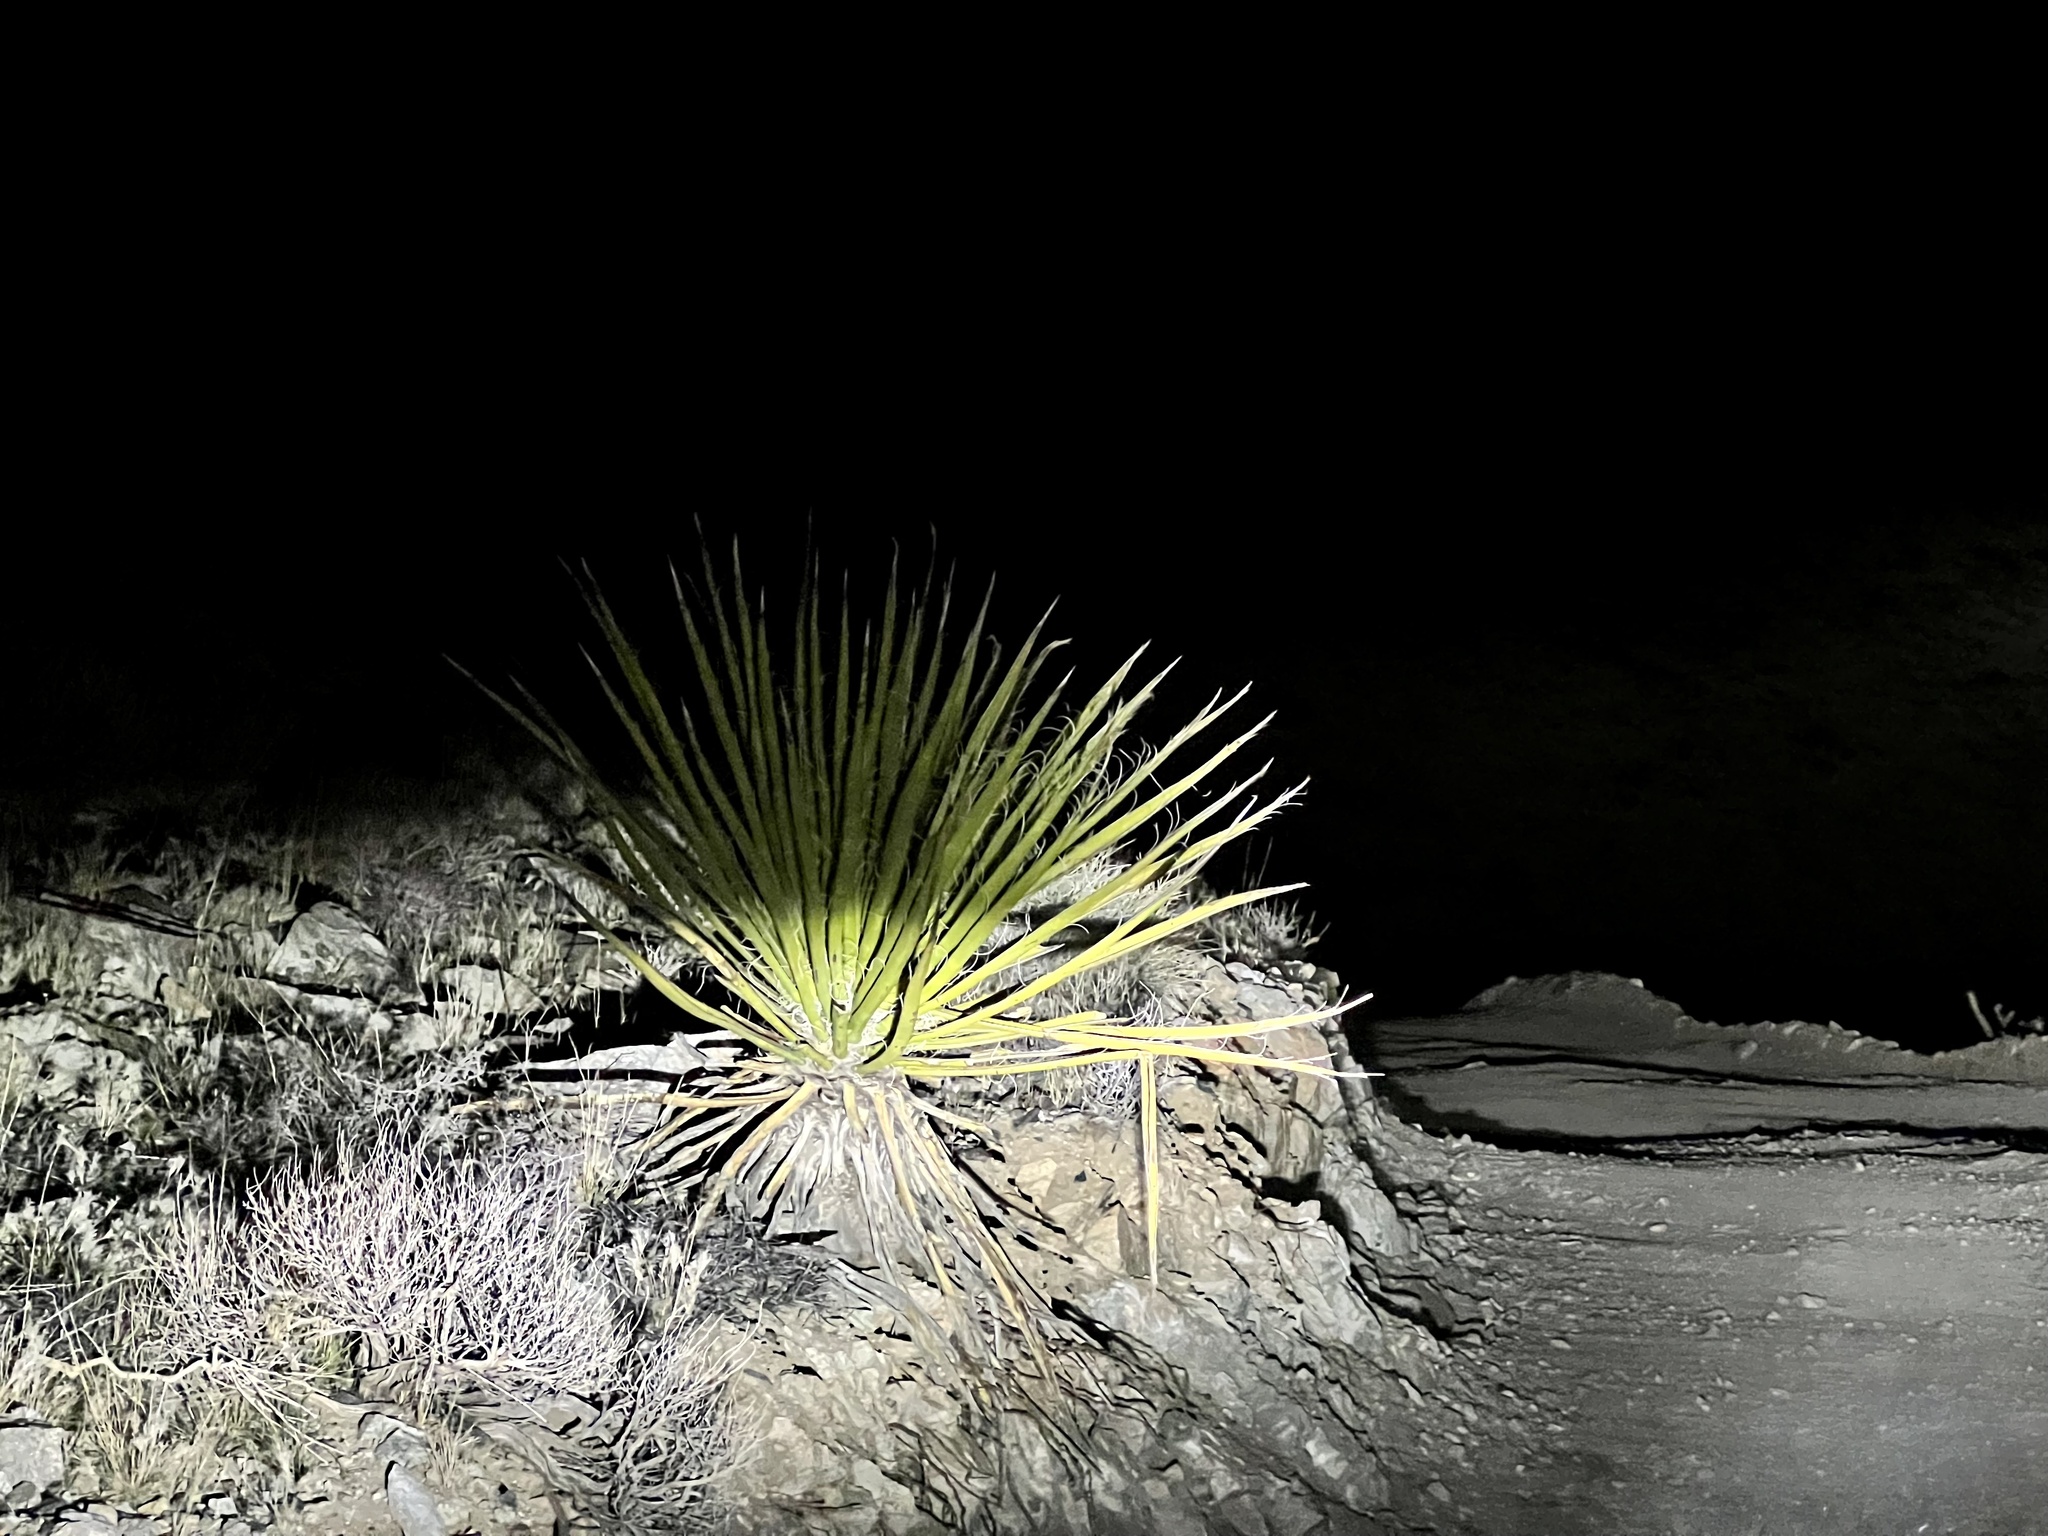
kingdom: Plantae
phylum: Tracheophyta
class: Liliopsida
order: Asparagales
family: Asparagaceae
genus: Yucca
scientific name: Yucca schidigera
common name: Mojave yucca
